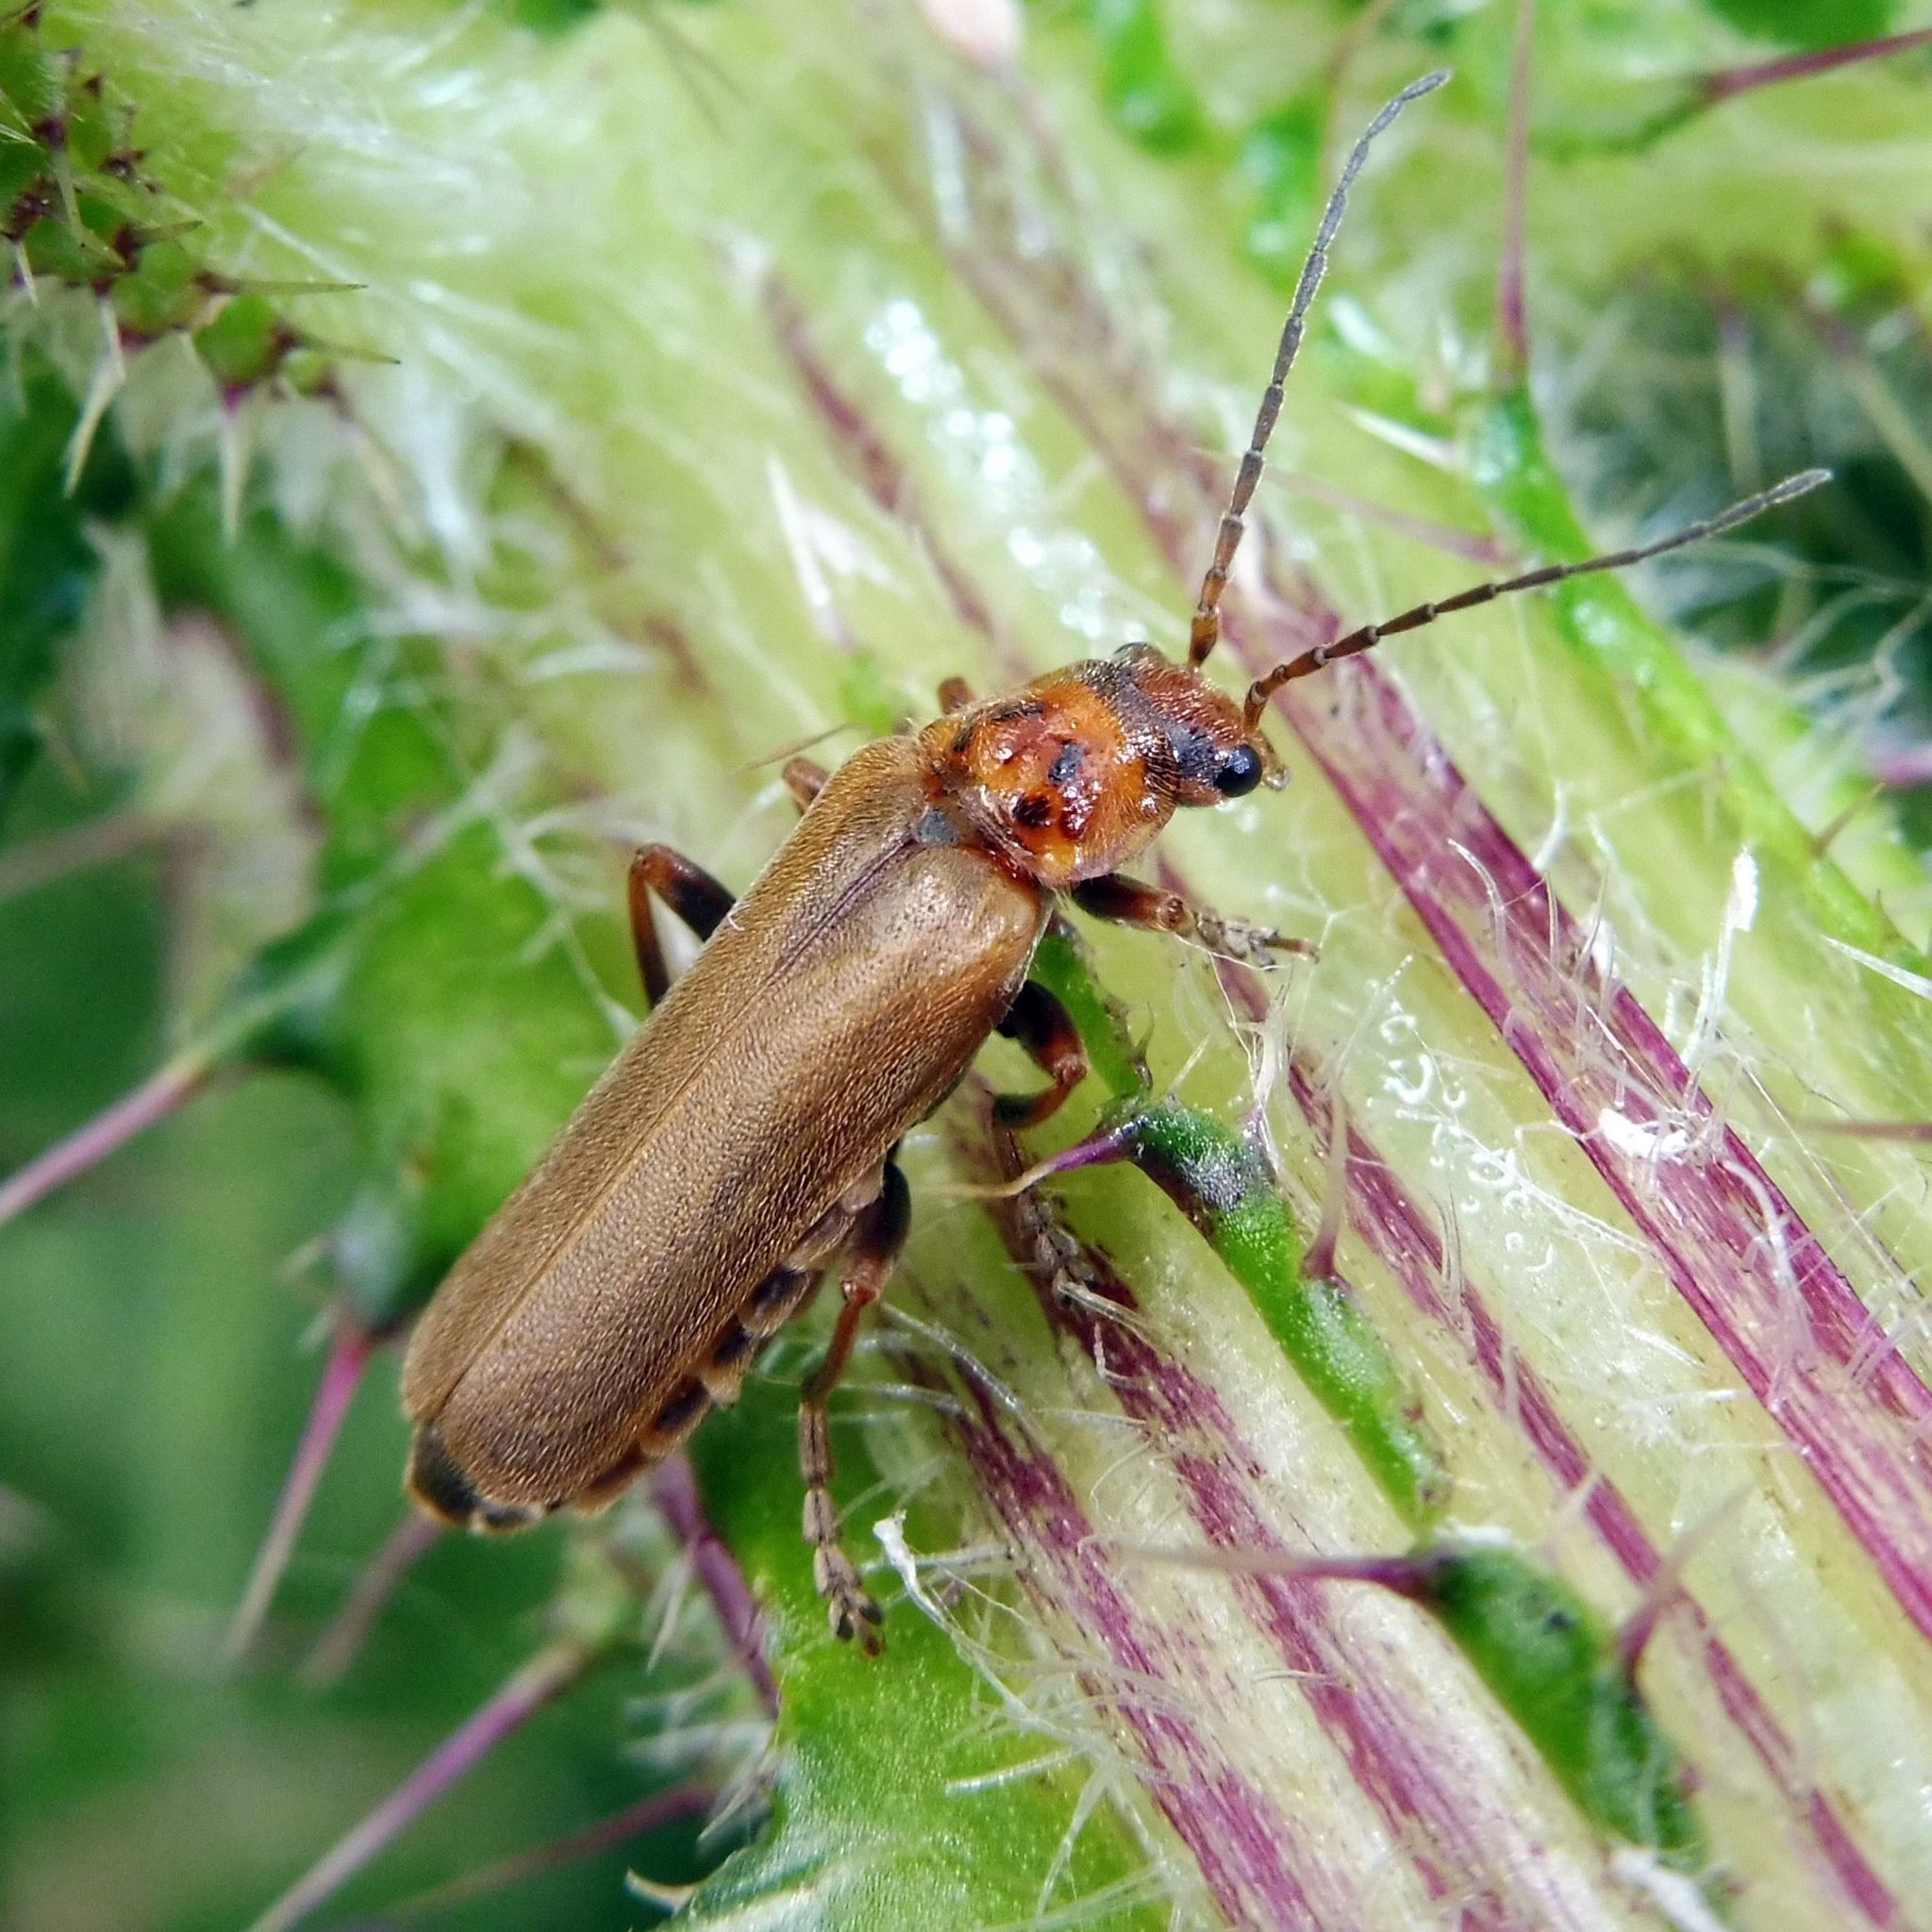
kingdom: Animalia
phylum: Arthropoda
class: Insecta
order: Coleoptera
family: Cantharidae
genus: Cantharis
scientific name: Cantharis rufa
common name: Red-spotted soldier beetle
